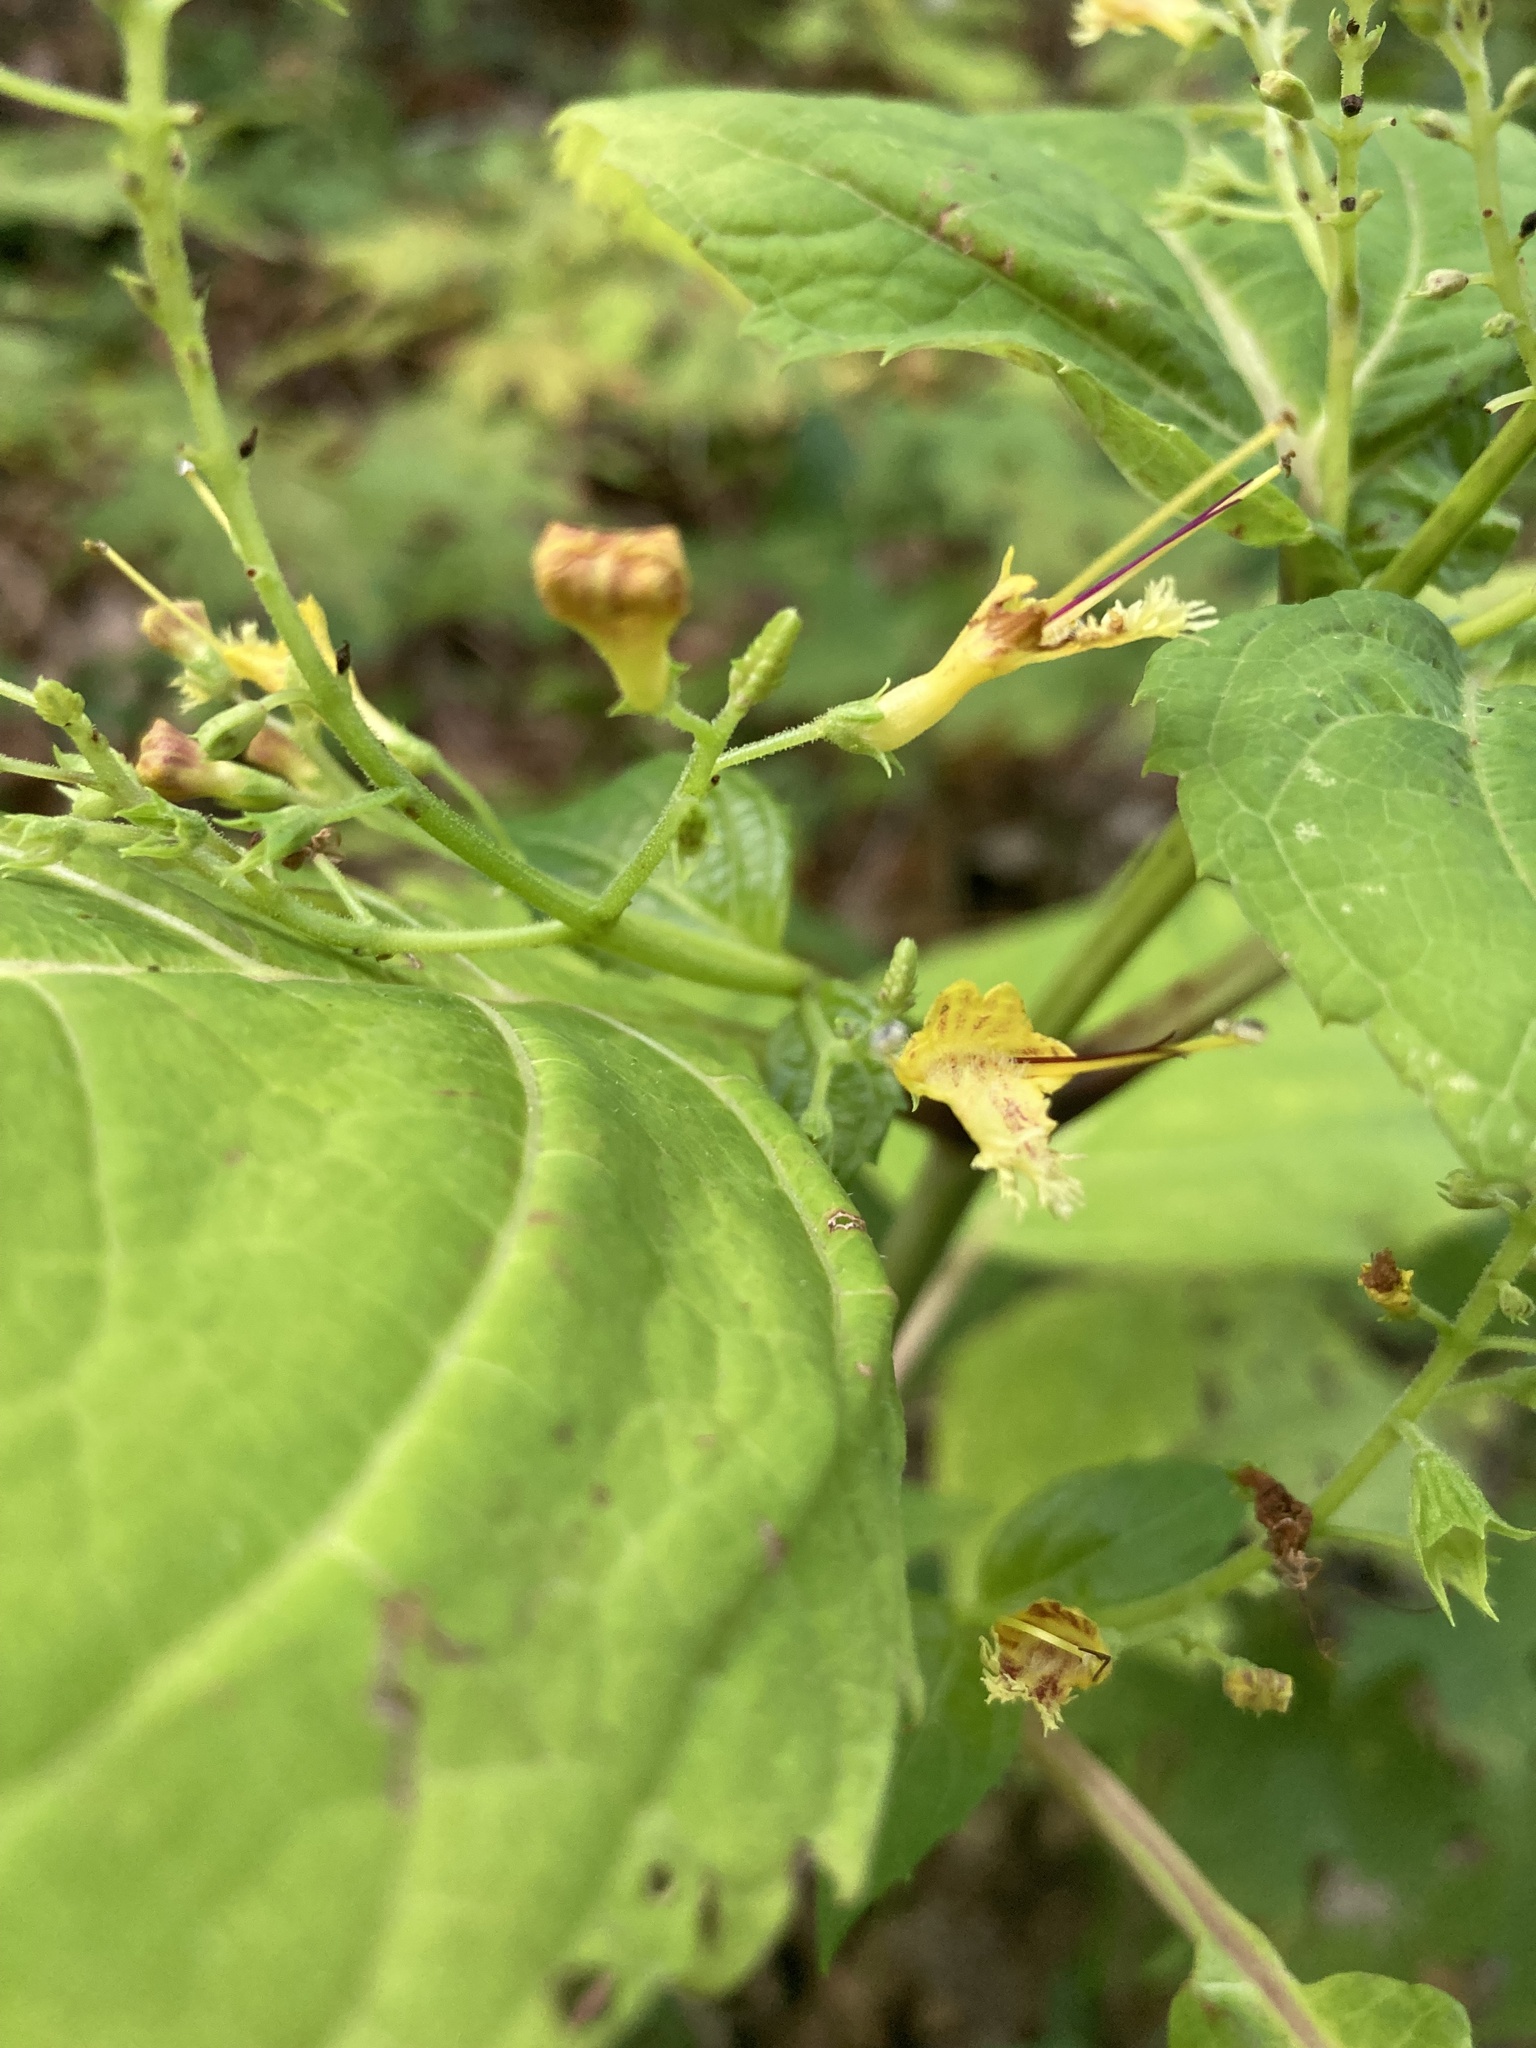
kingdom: Plantae
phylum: Tracheophyta
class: Magnoliopsida
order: Lamiales
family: Lamiaceae
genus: Collinsonia
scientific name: Collinsonia canadensis
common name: Northern horsebalm
